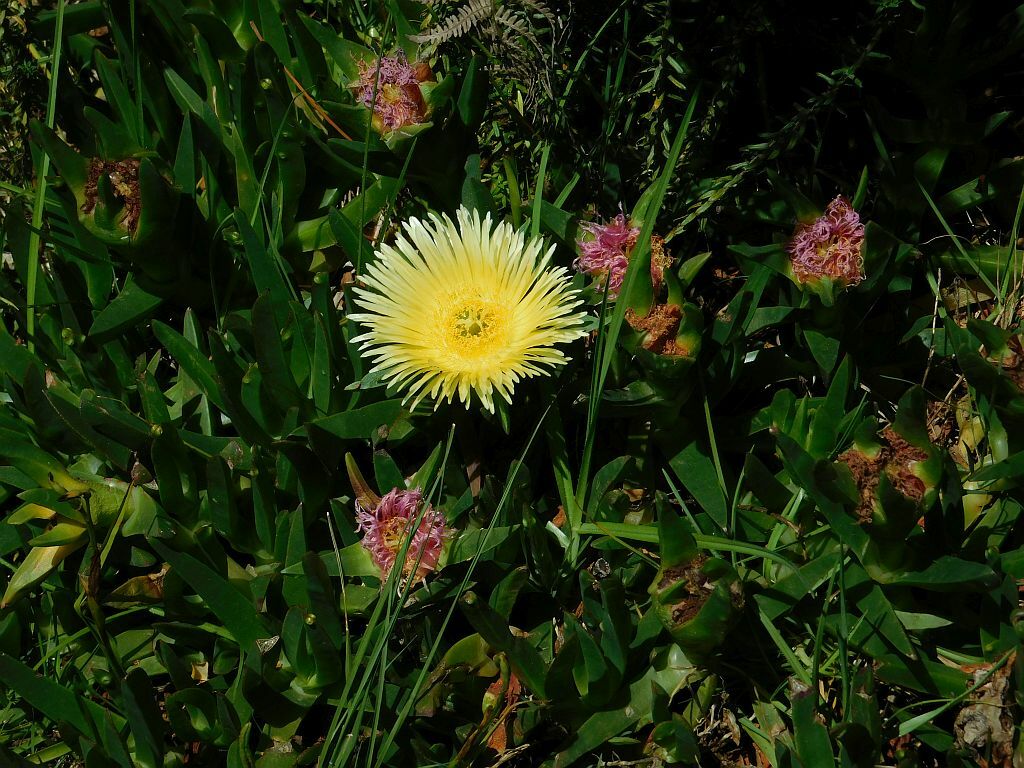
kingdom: Plantae
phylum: Tracheophyta
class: Magnoliopsida
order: Caryophyllales
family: Aizoaceae
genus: Carpobrotus
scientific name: Carpobrotus edulis
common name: Hottentot-fig
